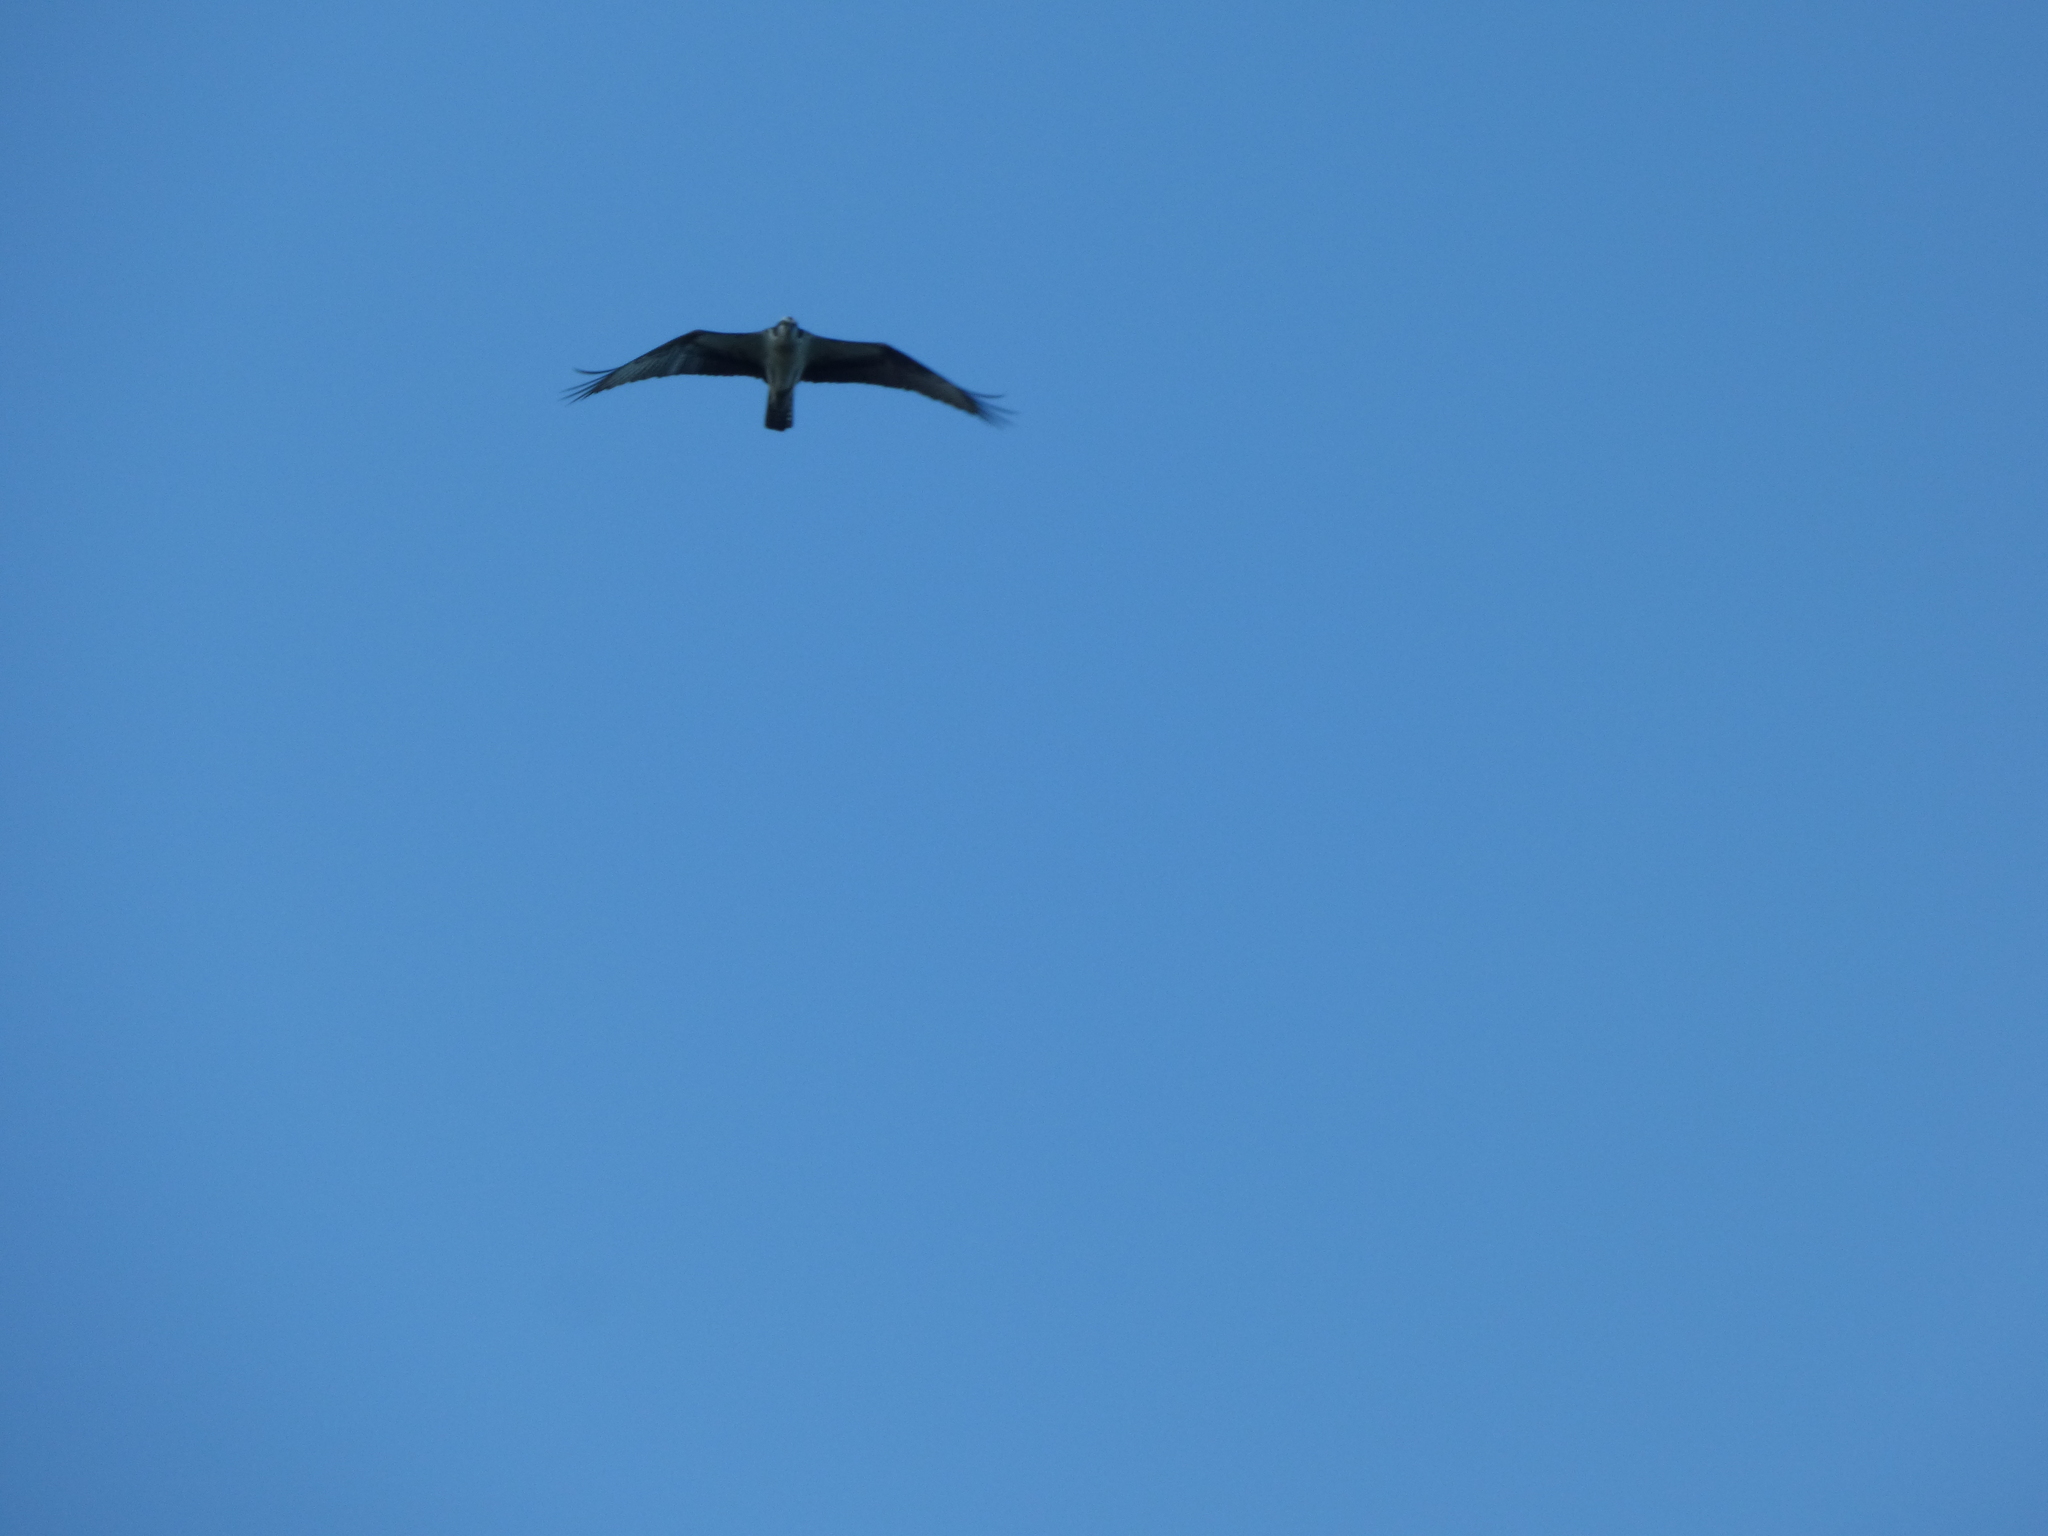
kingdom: Animalia
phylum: Chordata
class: Aves
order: Accipitriformes
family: Pandionidae
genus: Pandion
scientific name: Pandion haliaetus
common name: Osprey
